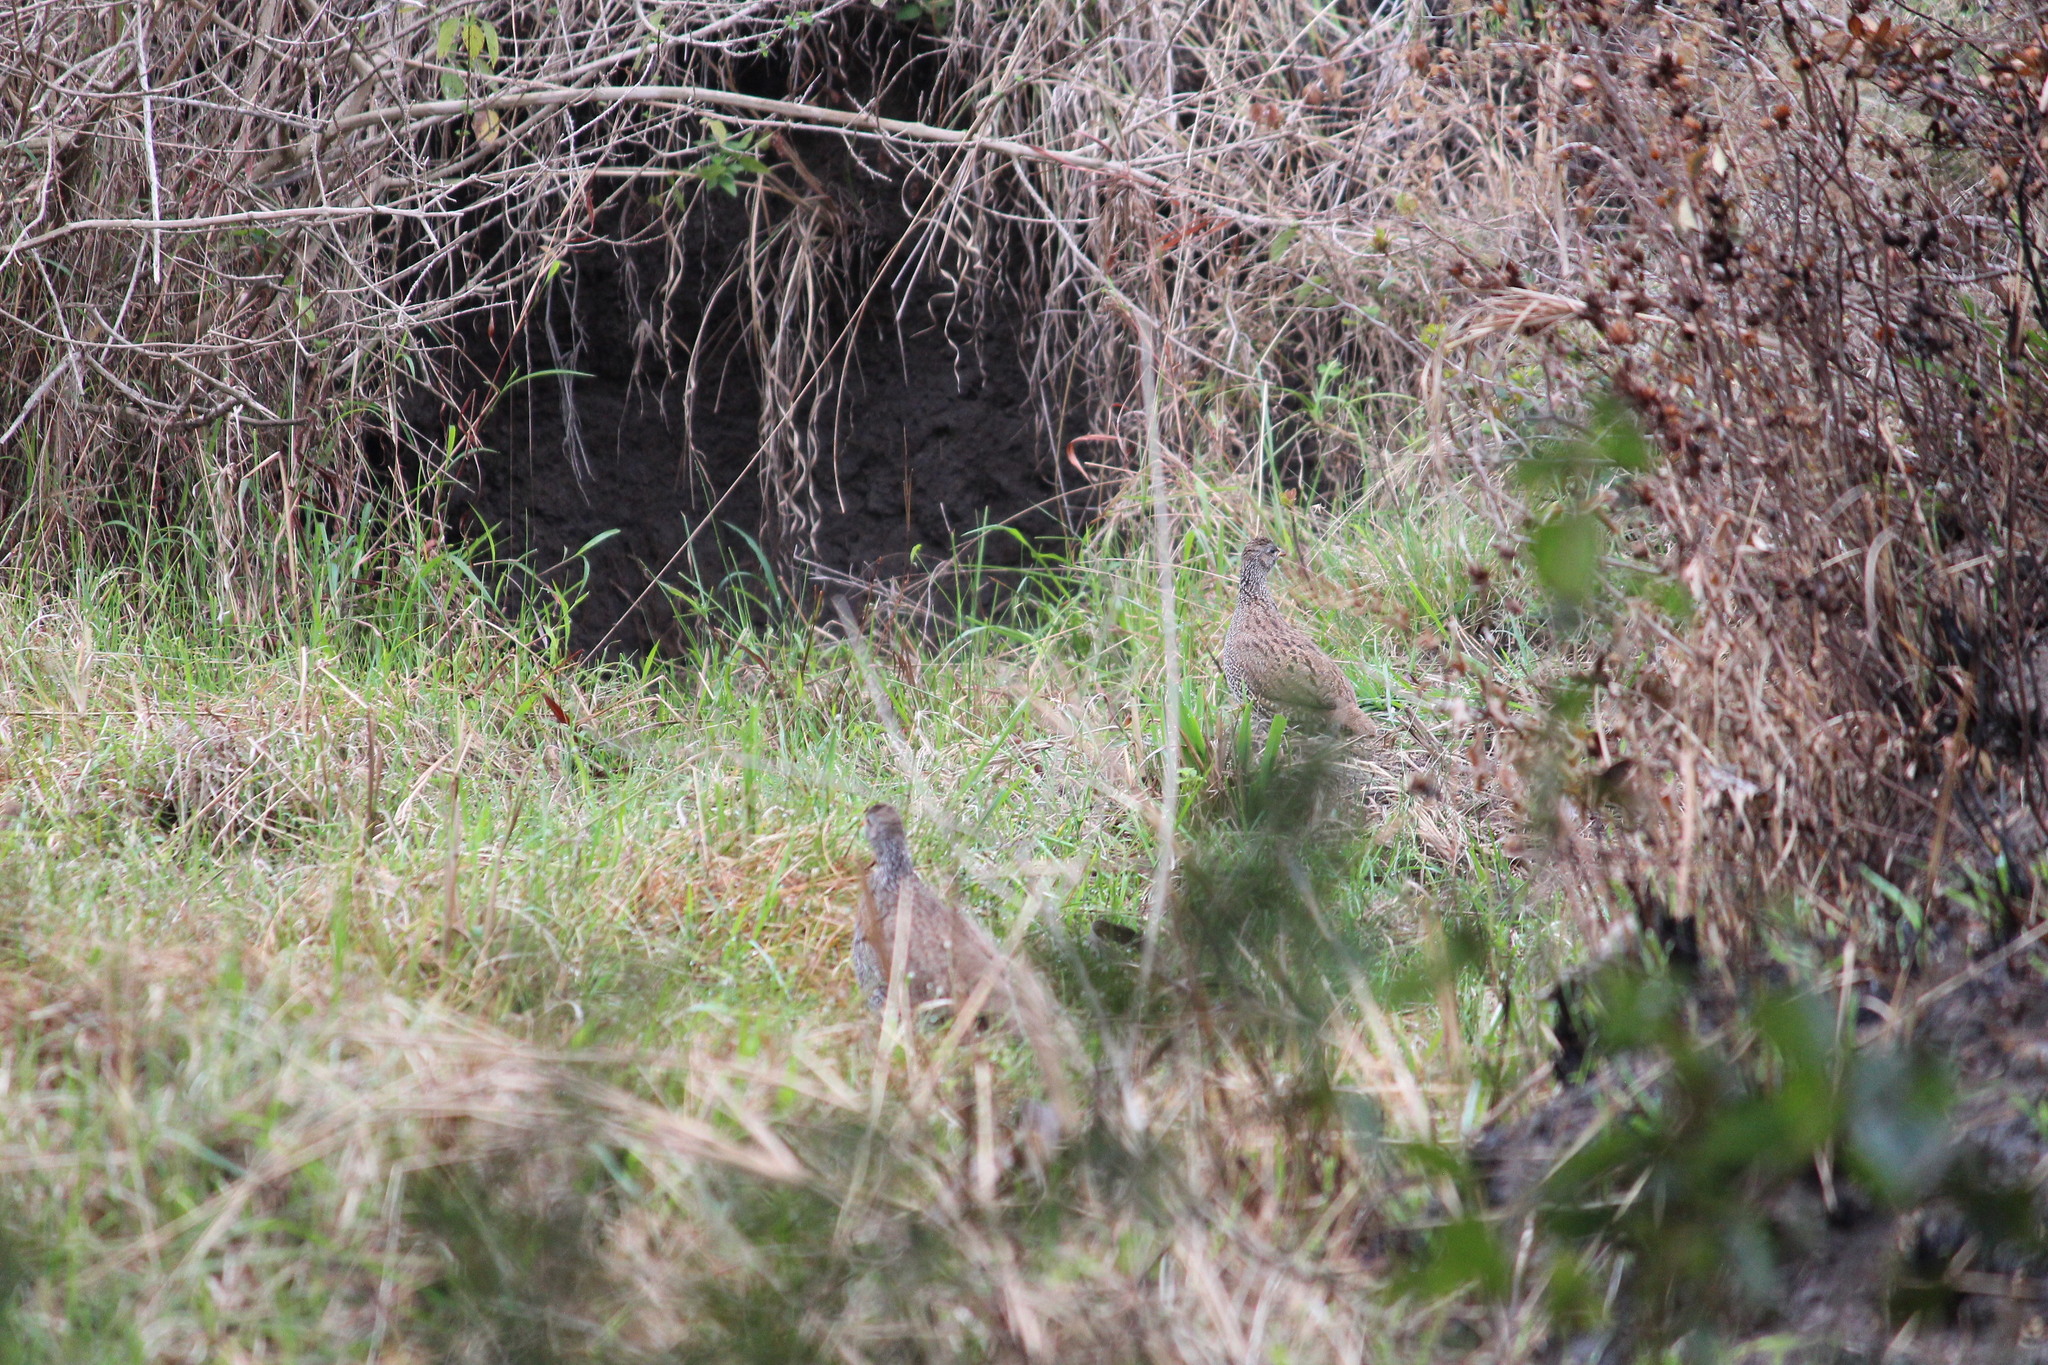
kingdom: Animalia
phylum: Chordata
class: Aves
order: Galliformes
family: Phasianidae
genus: Pternistis
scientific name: Pternistis natalensis
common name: Natal spurfowl
